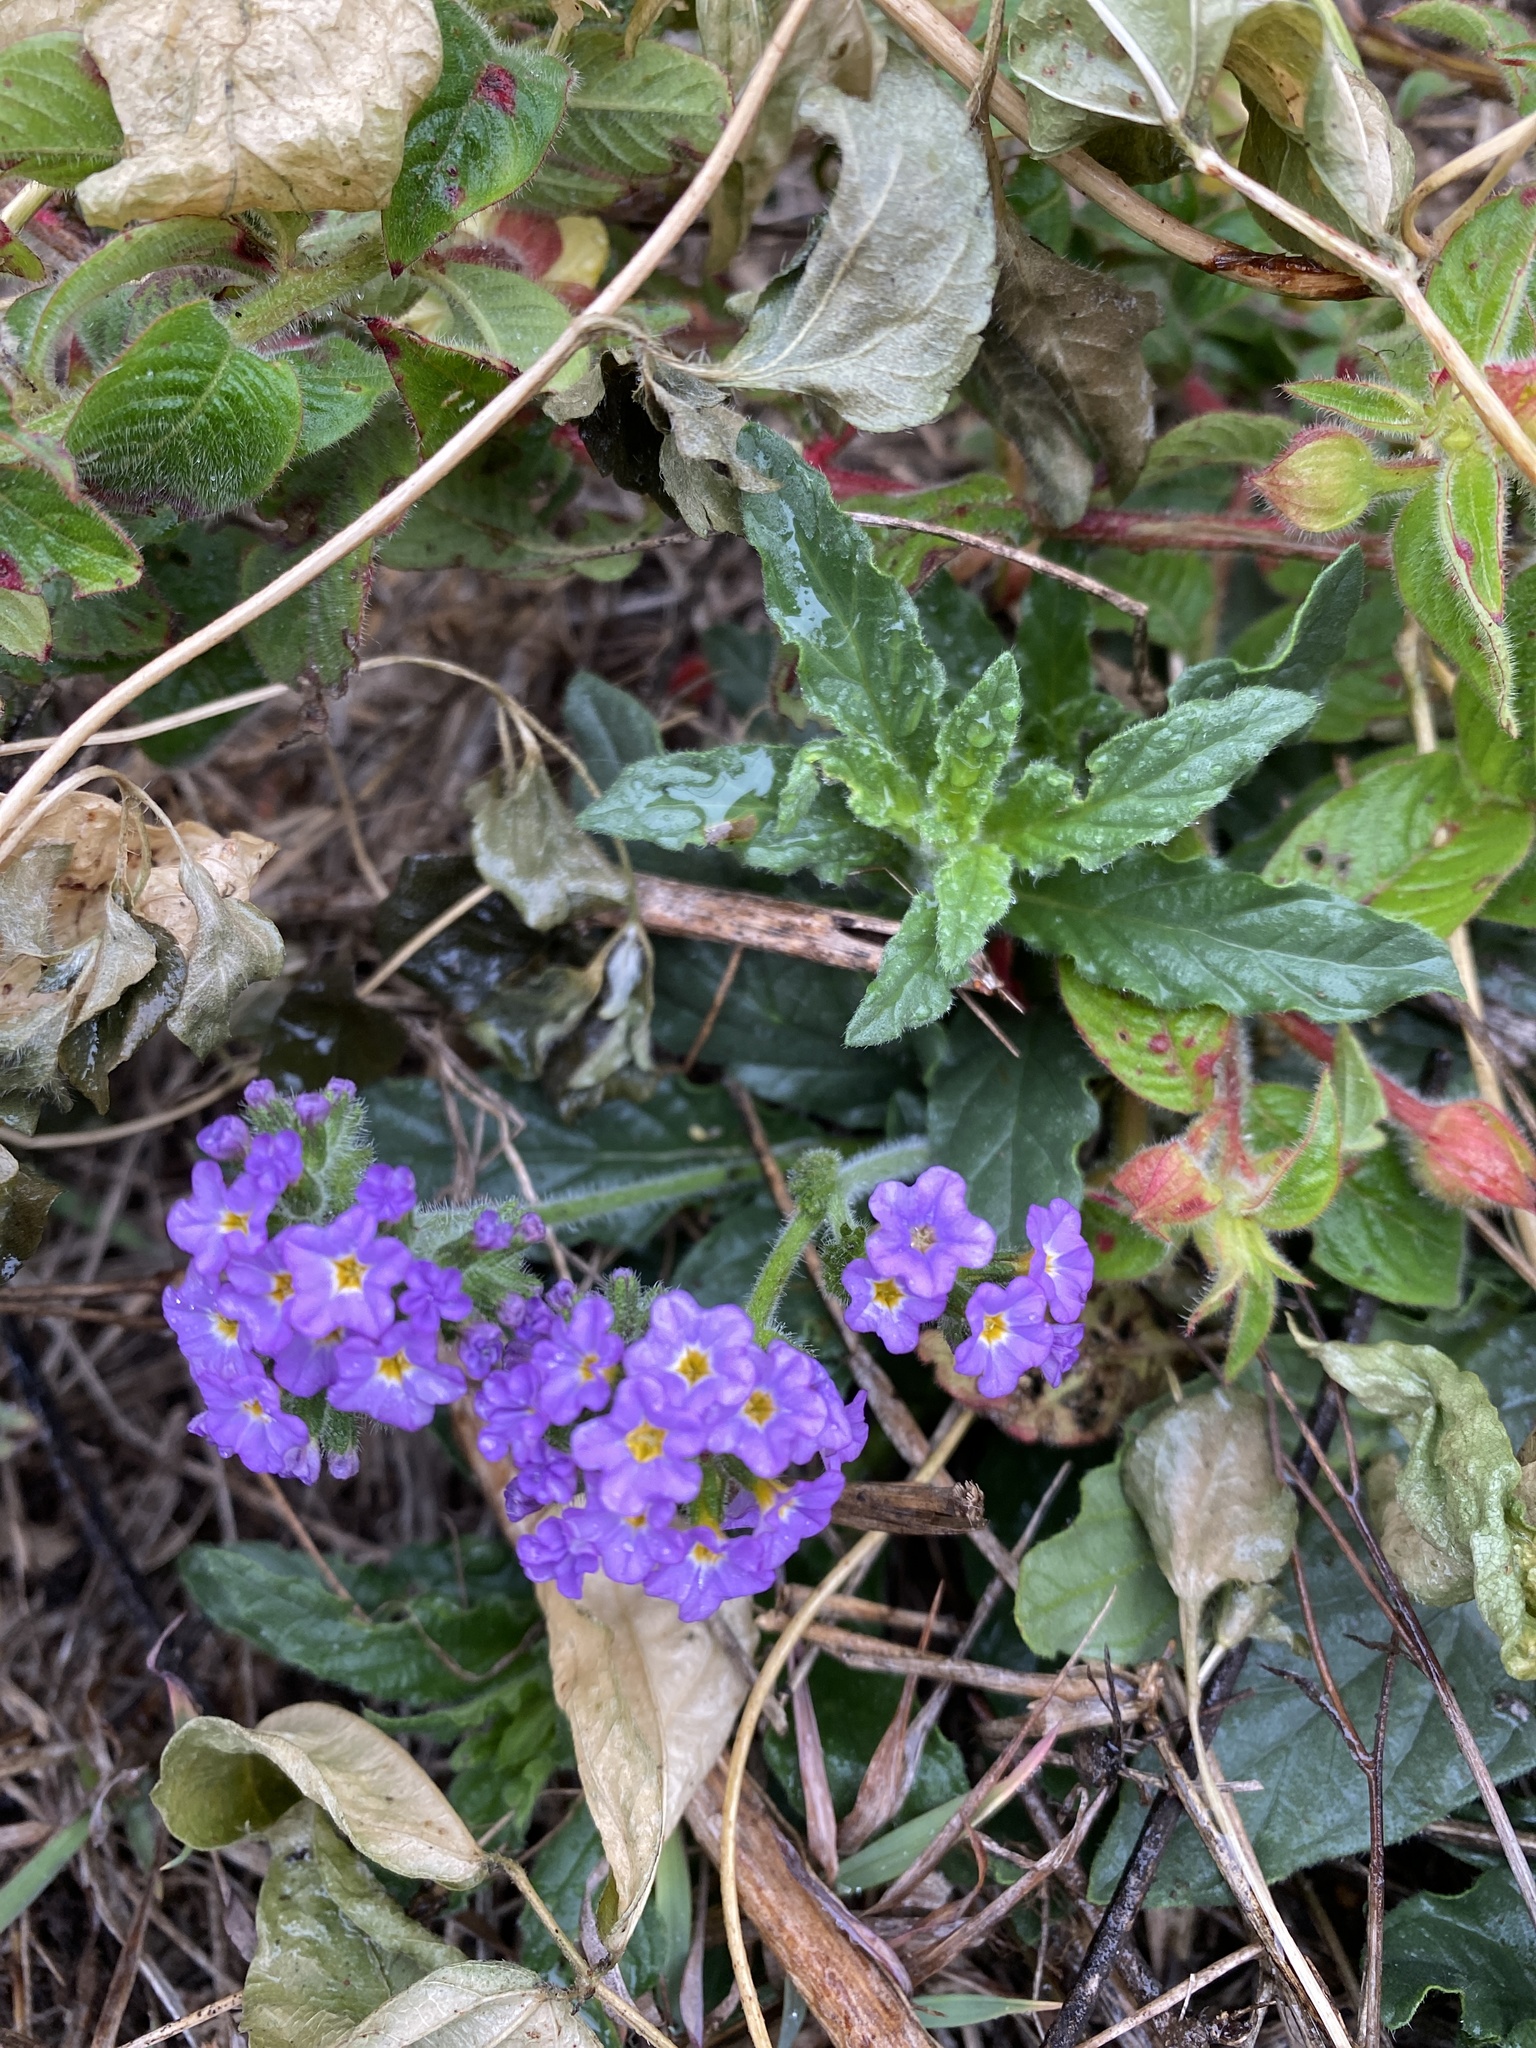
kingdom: Plantae
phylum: Tracheophyta
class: Magnoliopsida
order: Boraginales
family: Heliotropiaceae
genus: Heliotropium
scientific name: Heliotropium amplexicaule
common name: Clasping heliotrope
